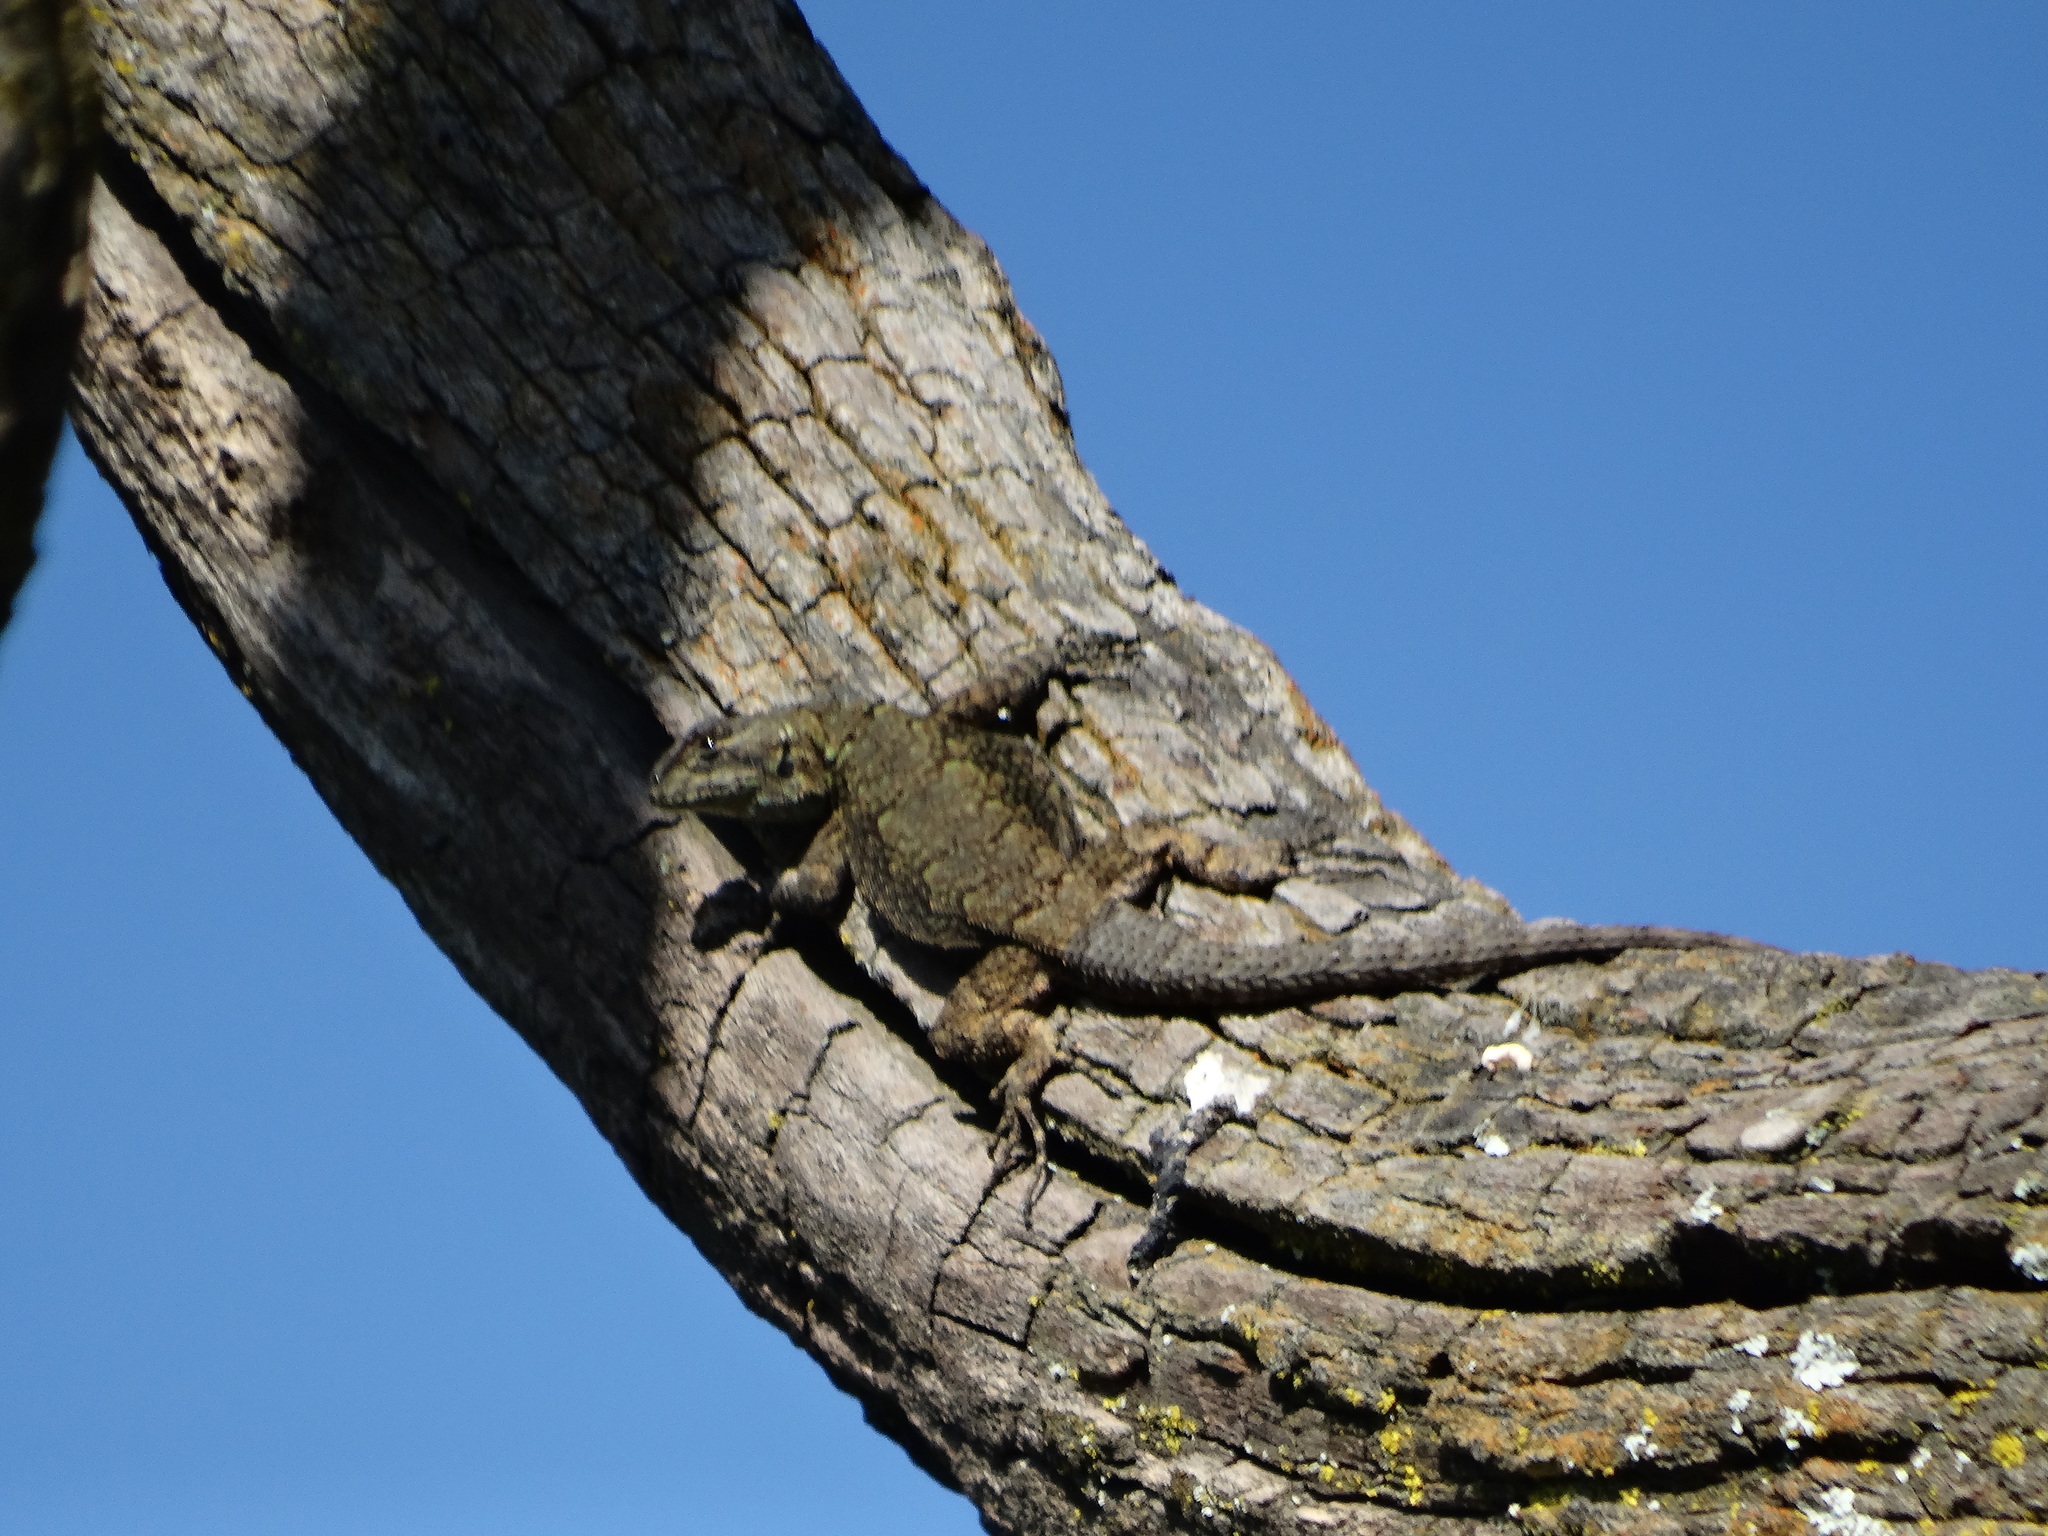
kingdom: Animalia
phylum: Chordata
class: Squamata
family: Phrynosomatidae
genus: Sceloporus
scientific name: Sceloporus grammicus
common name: Mesquite lizard
